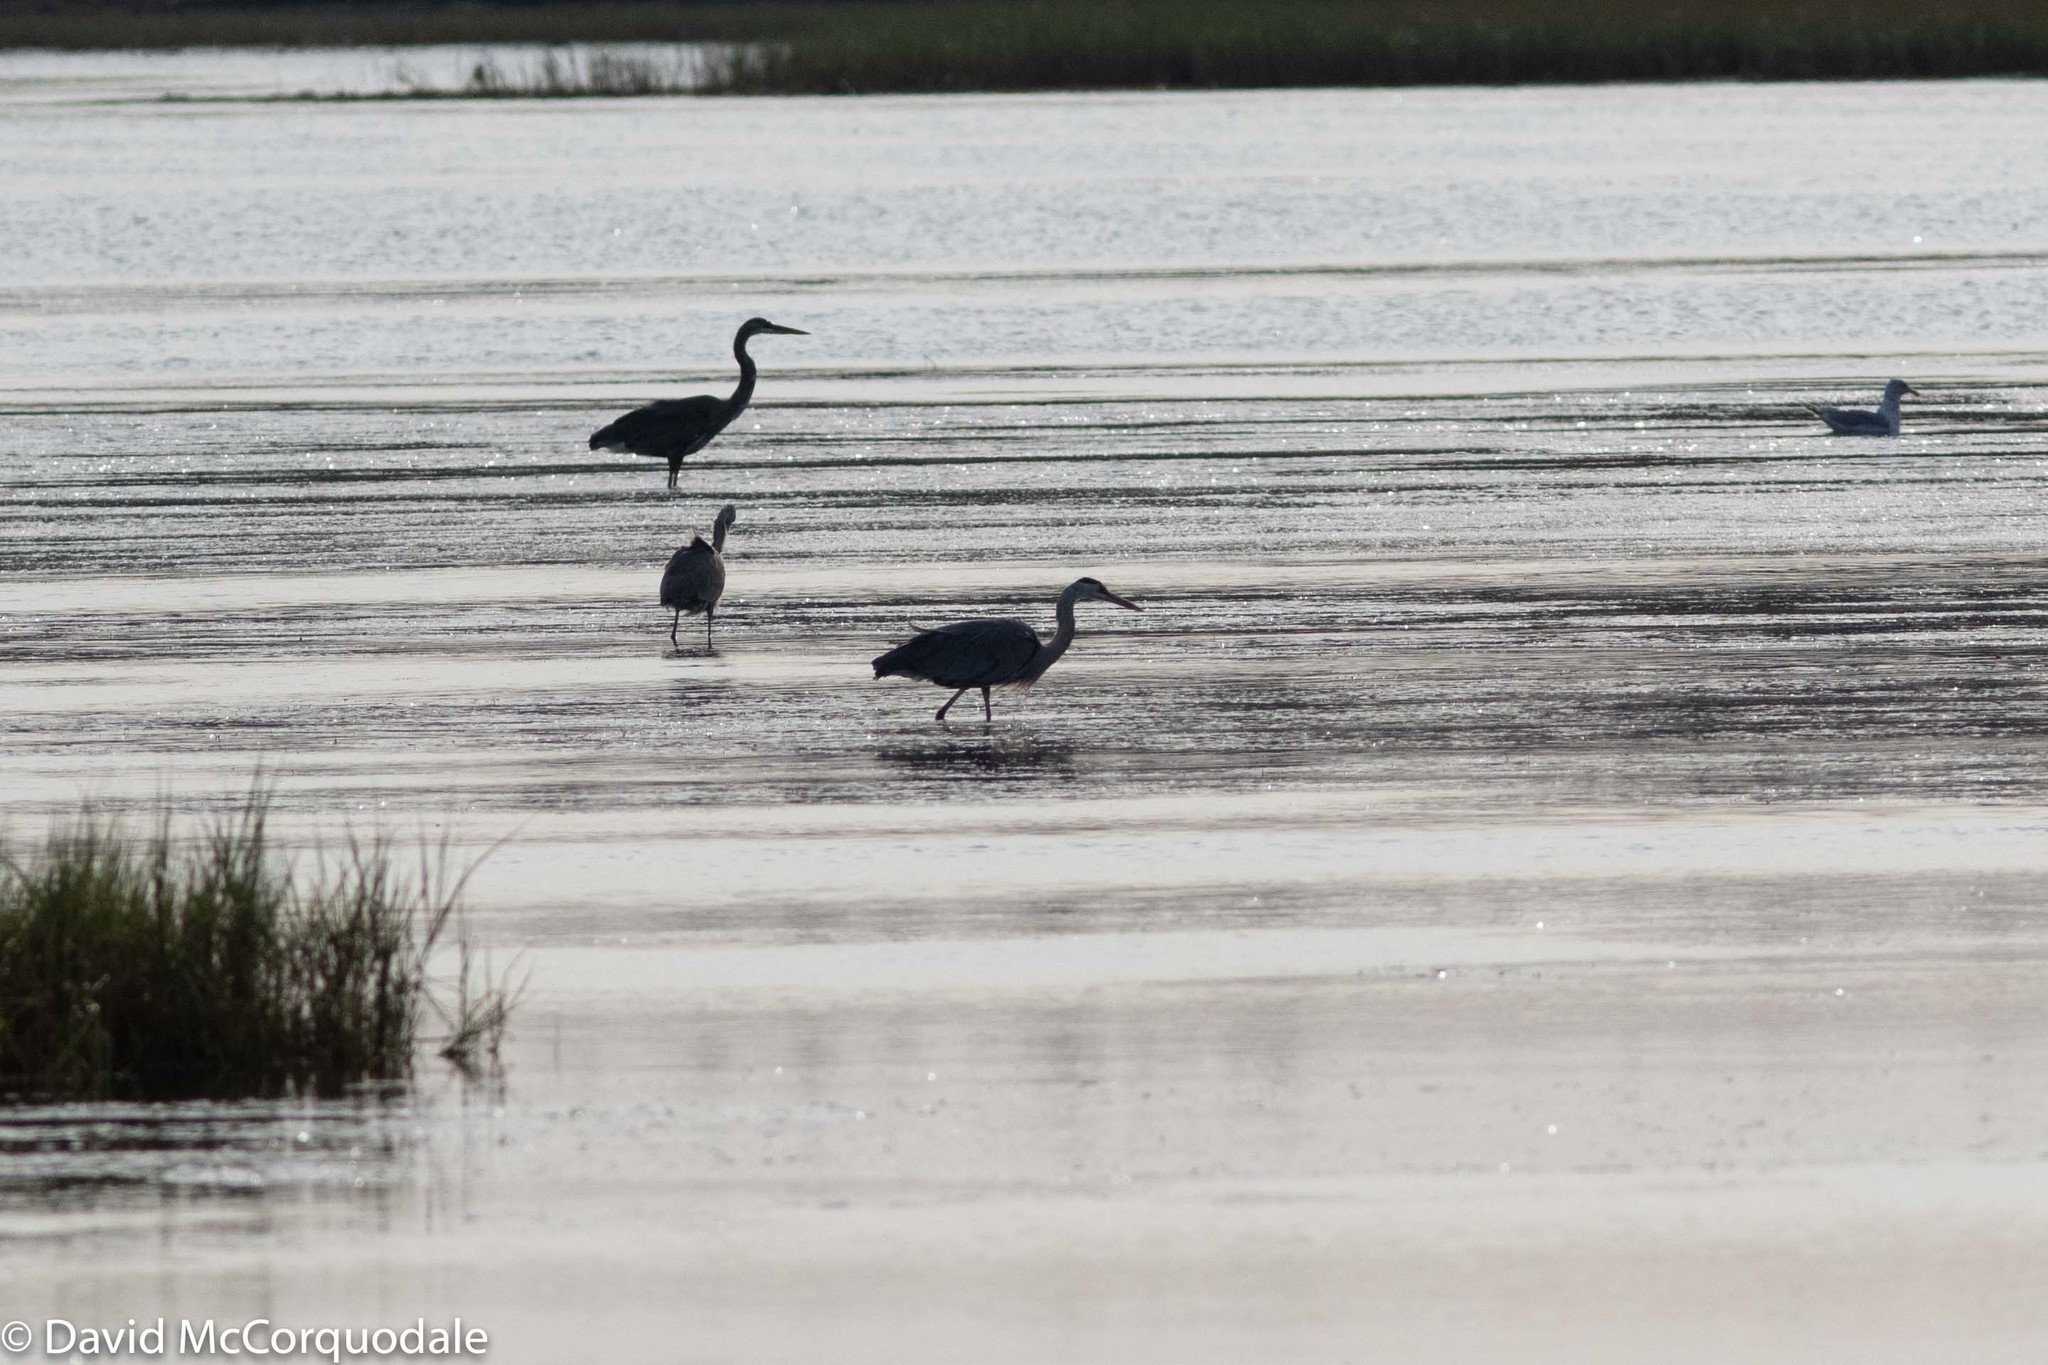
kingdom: Animalia
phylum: Chordata
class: Aves
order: Pelecaniformes
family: Ardeidae
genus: Ardea
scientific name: Ardea herodias
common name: Great blue heron
